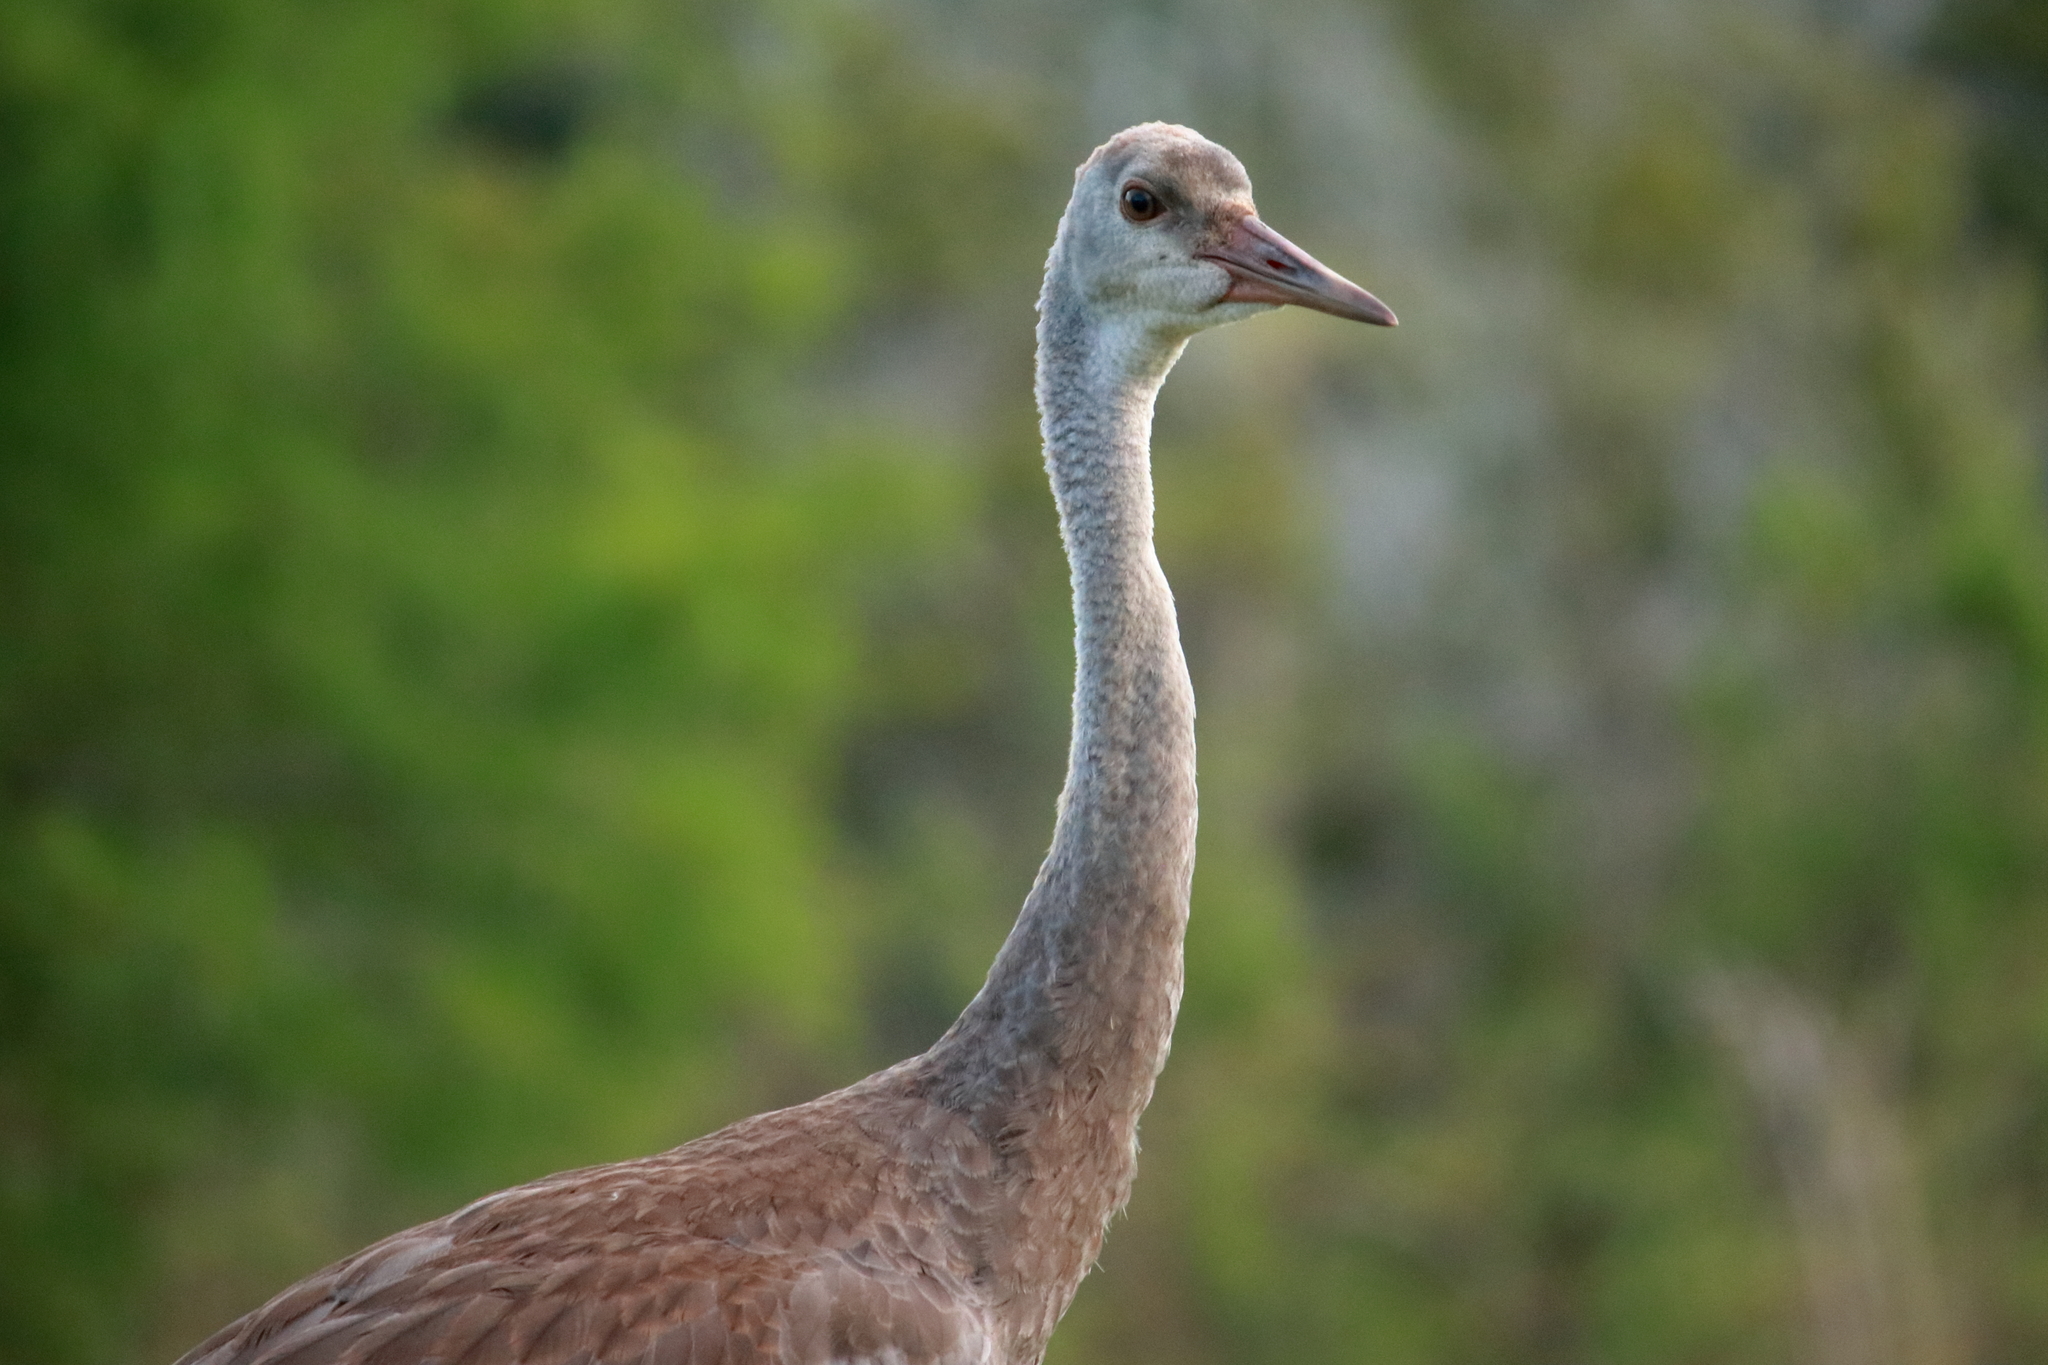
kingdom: Animalia
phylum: Chordata
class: Aves
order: Gruiformes
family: Gruidae
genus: Grus
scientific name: Grus canadensis
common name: Sandhill crane
